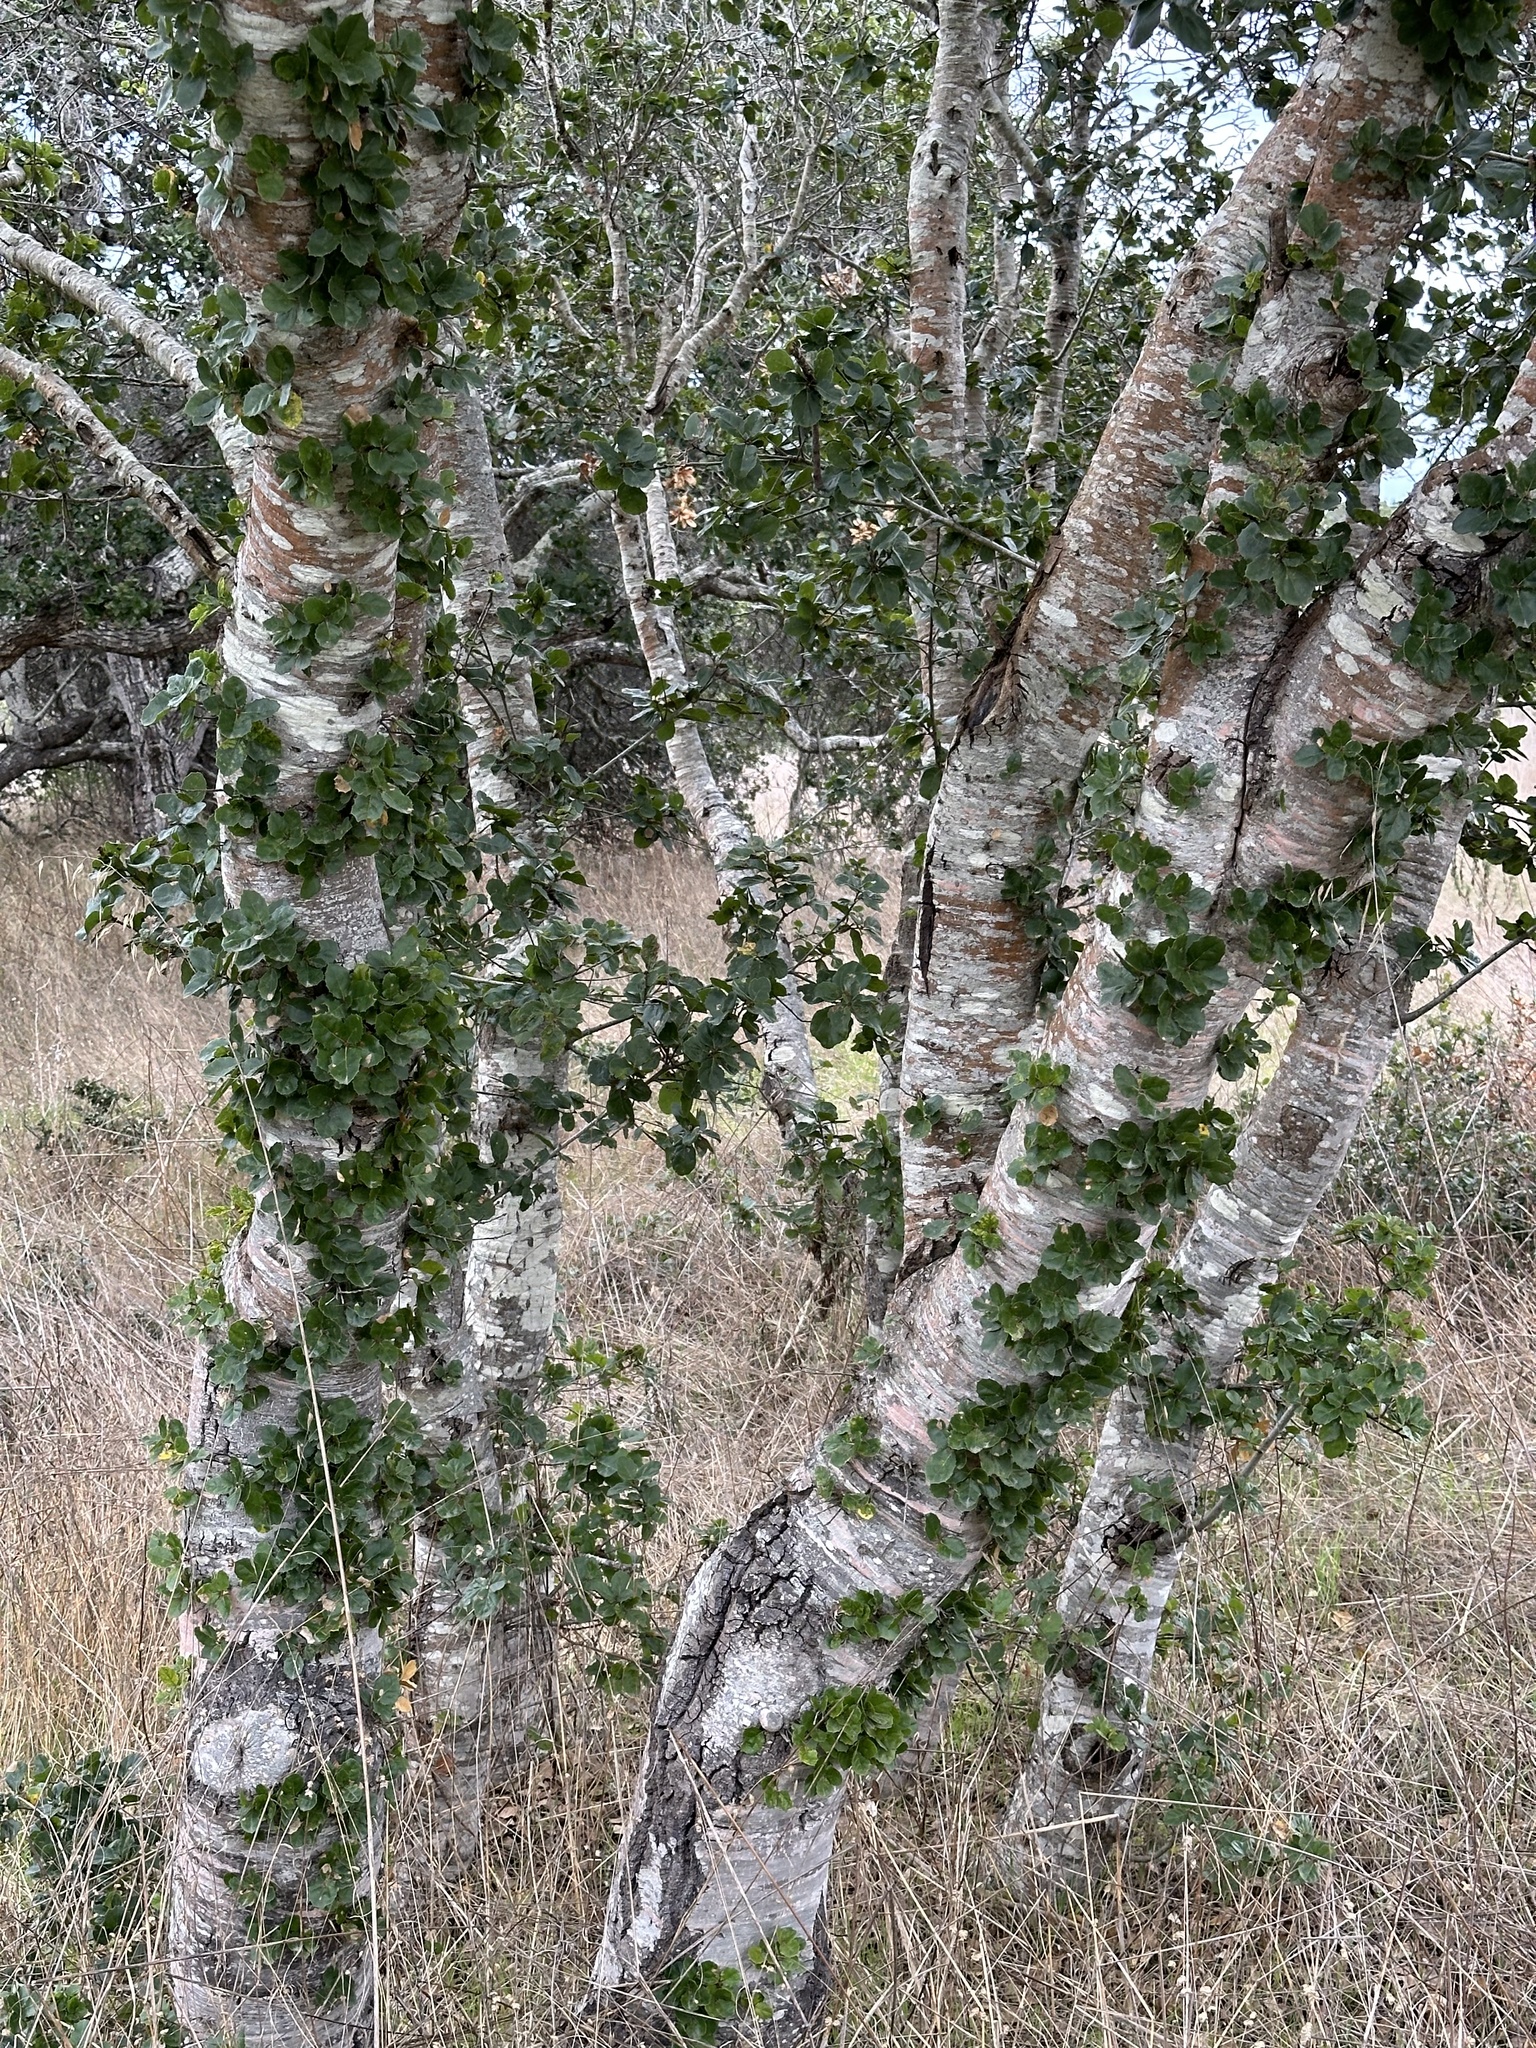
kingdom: Plantae
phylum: Tracheophyta
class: Magnoliopsida
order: Fagales
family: Fagaceae
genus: Quercus
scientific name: Quercus agrifolia
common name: California live oak
